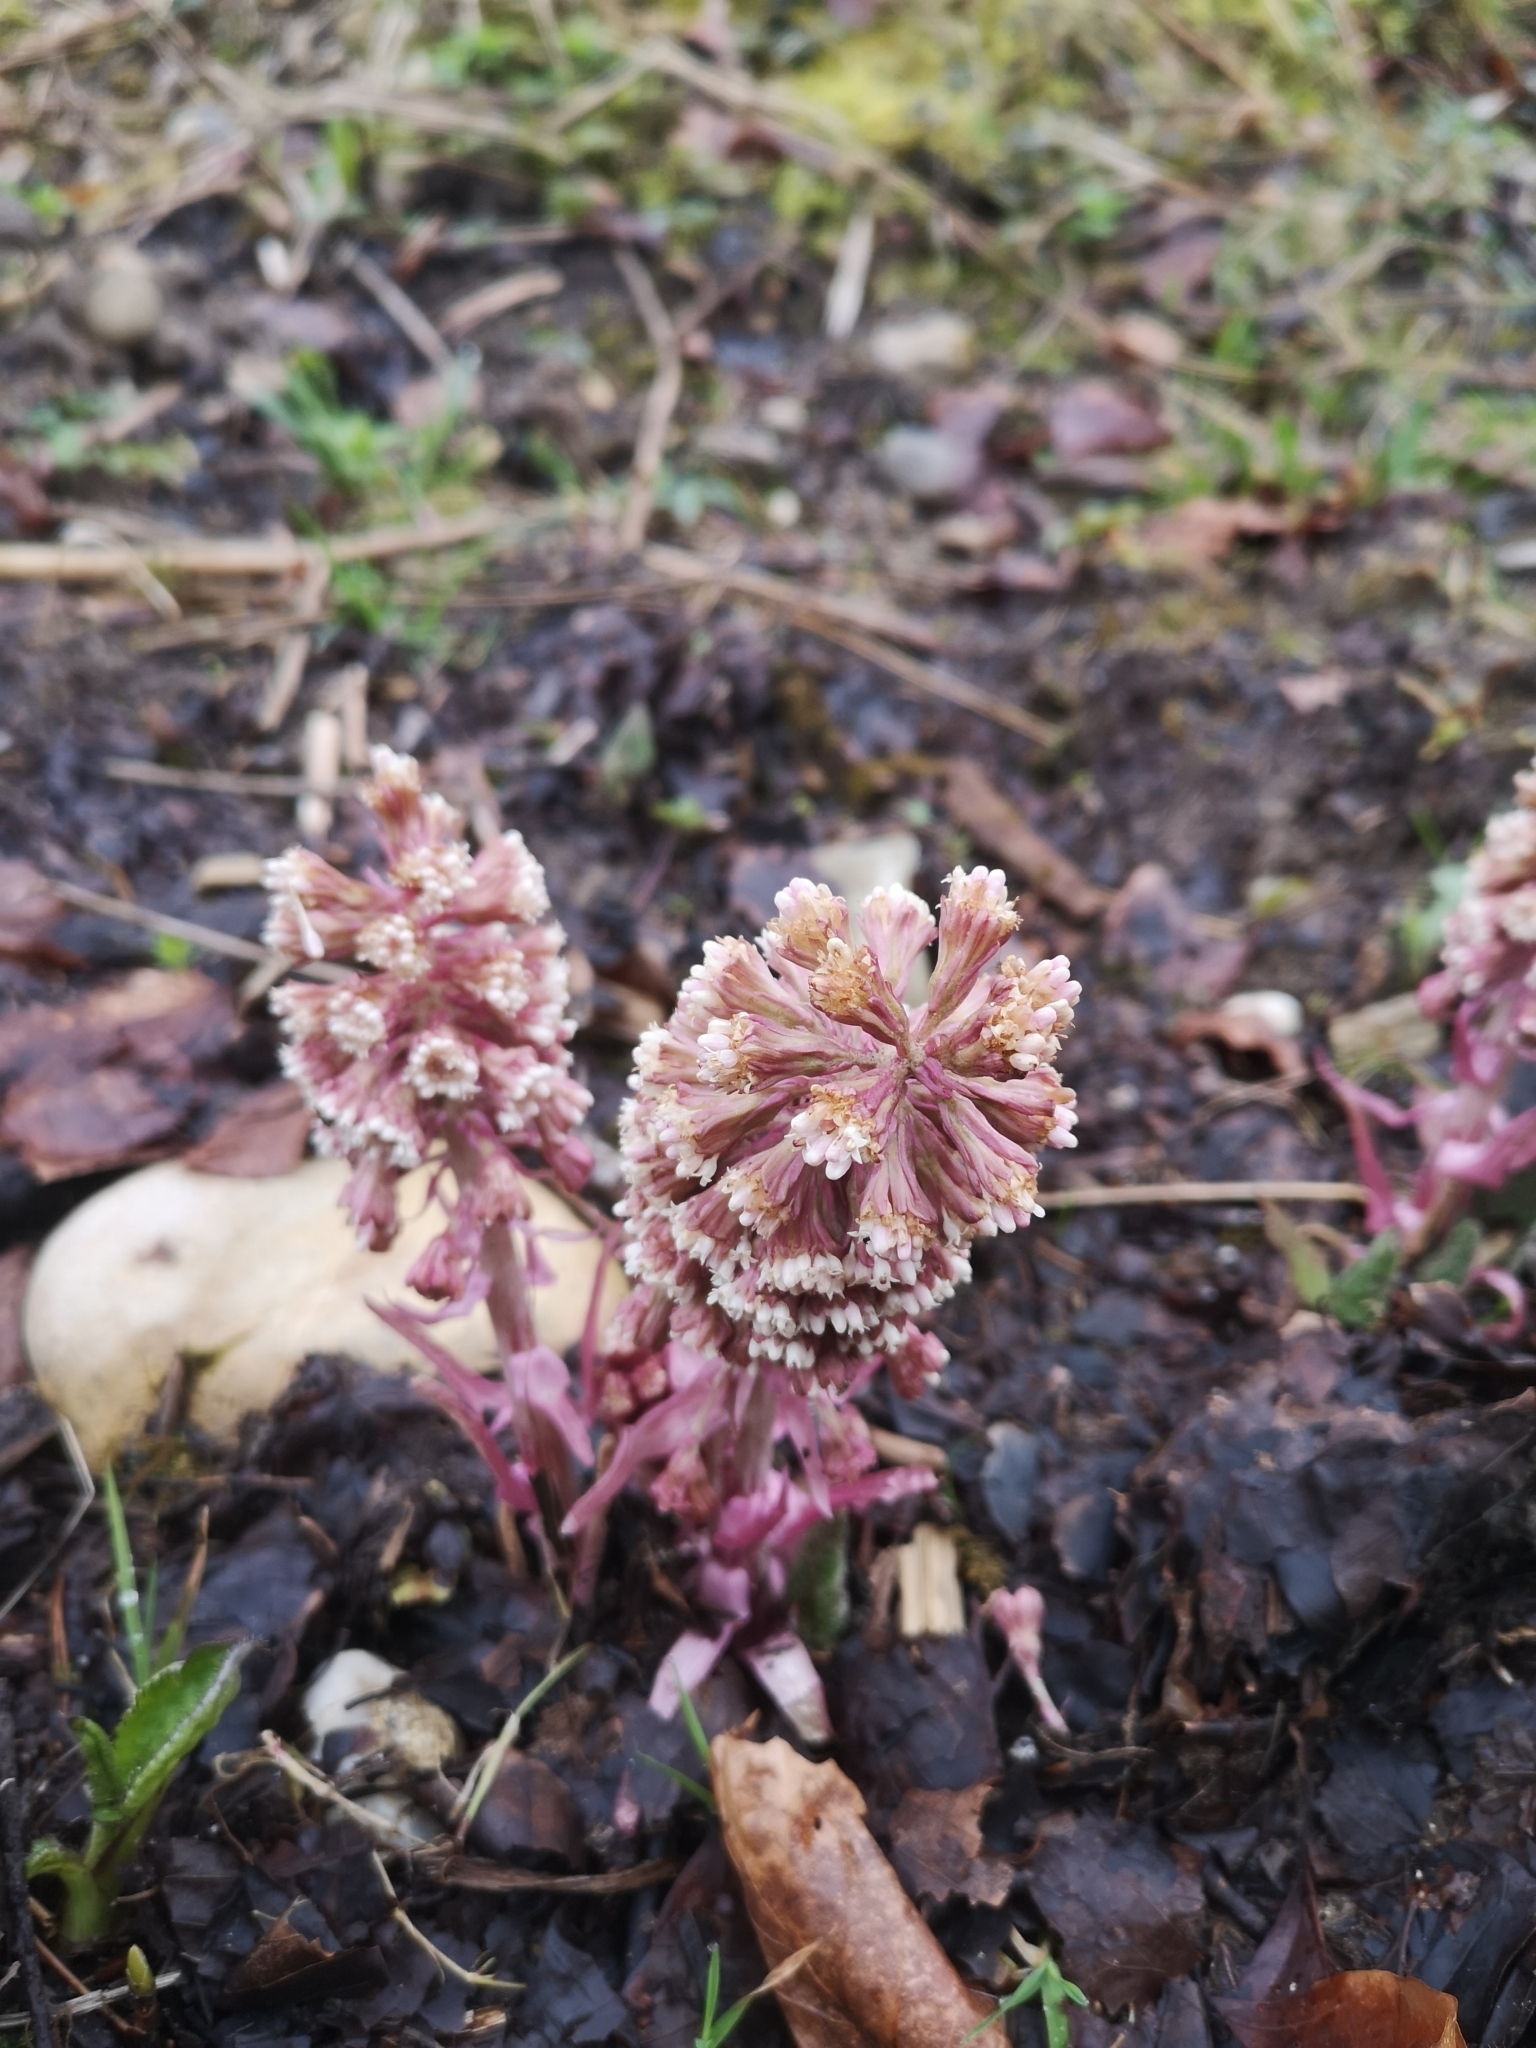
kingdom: Plantae
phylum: Tracheophyta
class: Magnoliopsida
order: Asterales
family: Asteraceae
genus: Petasites
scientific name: Petasites hybridus
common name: Butterbur
